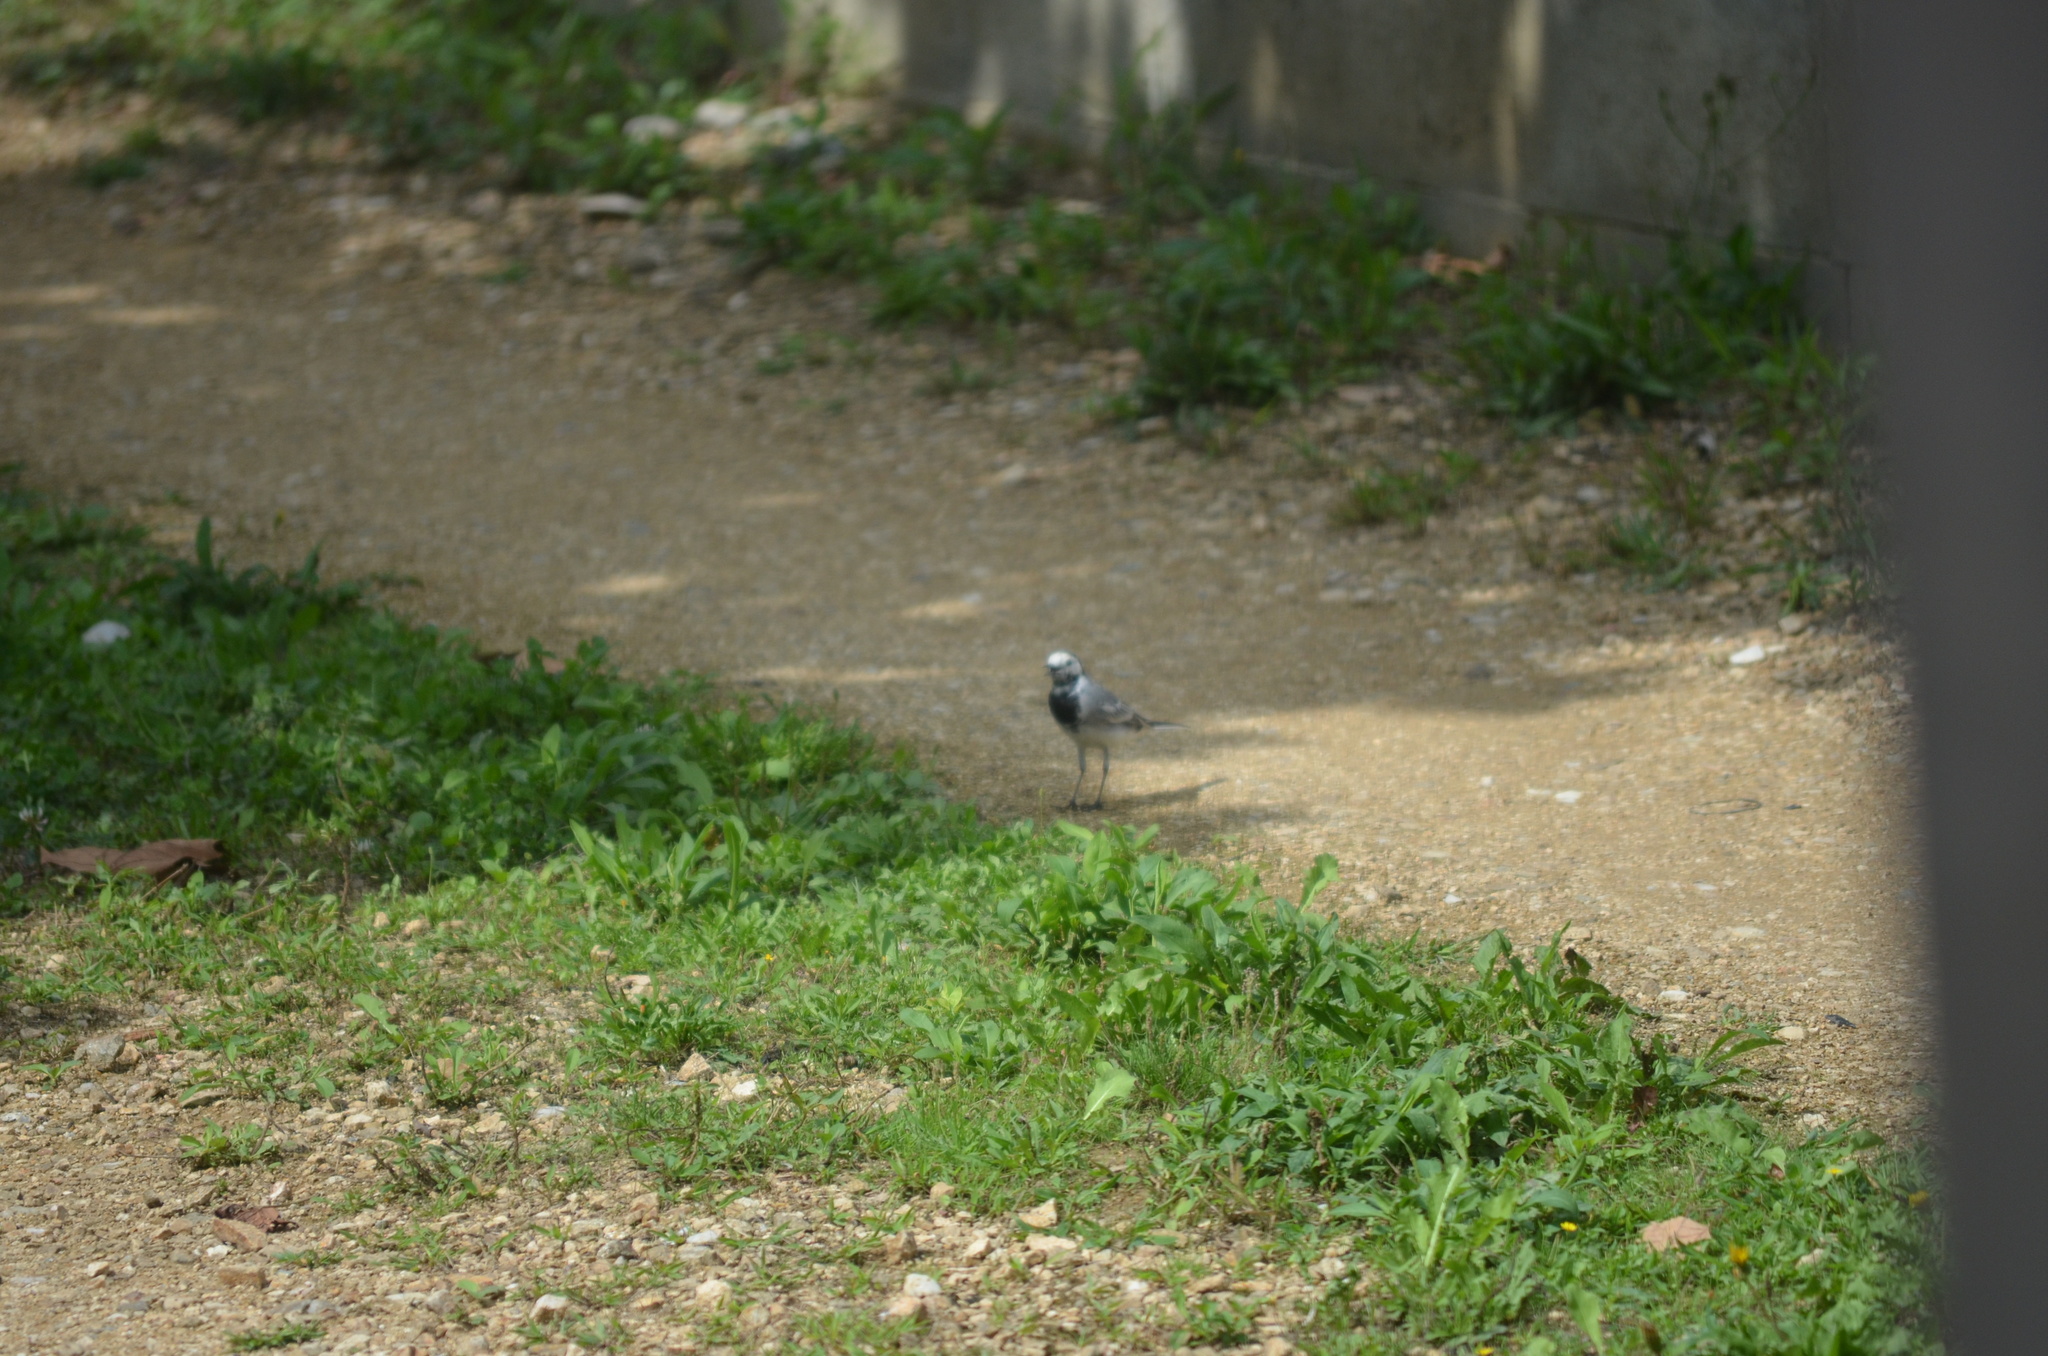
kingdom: Animalia
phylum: Chordata
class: Aves
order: Passeriformes
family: Motacillidae
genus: Motacilla
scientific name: Motacilla alba
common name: White wagtail
